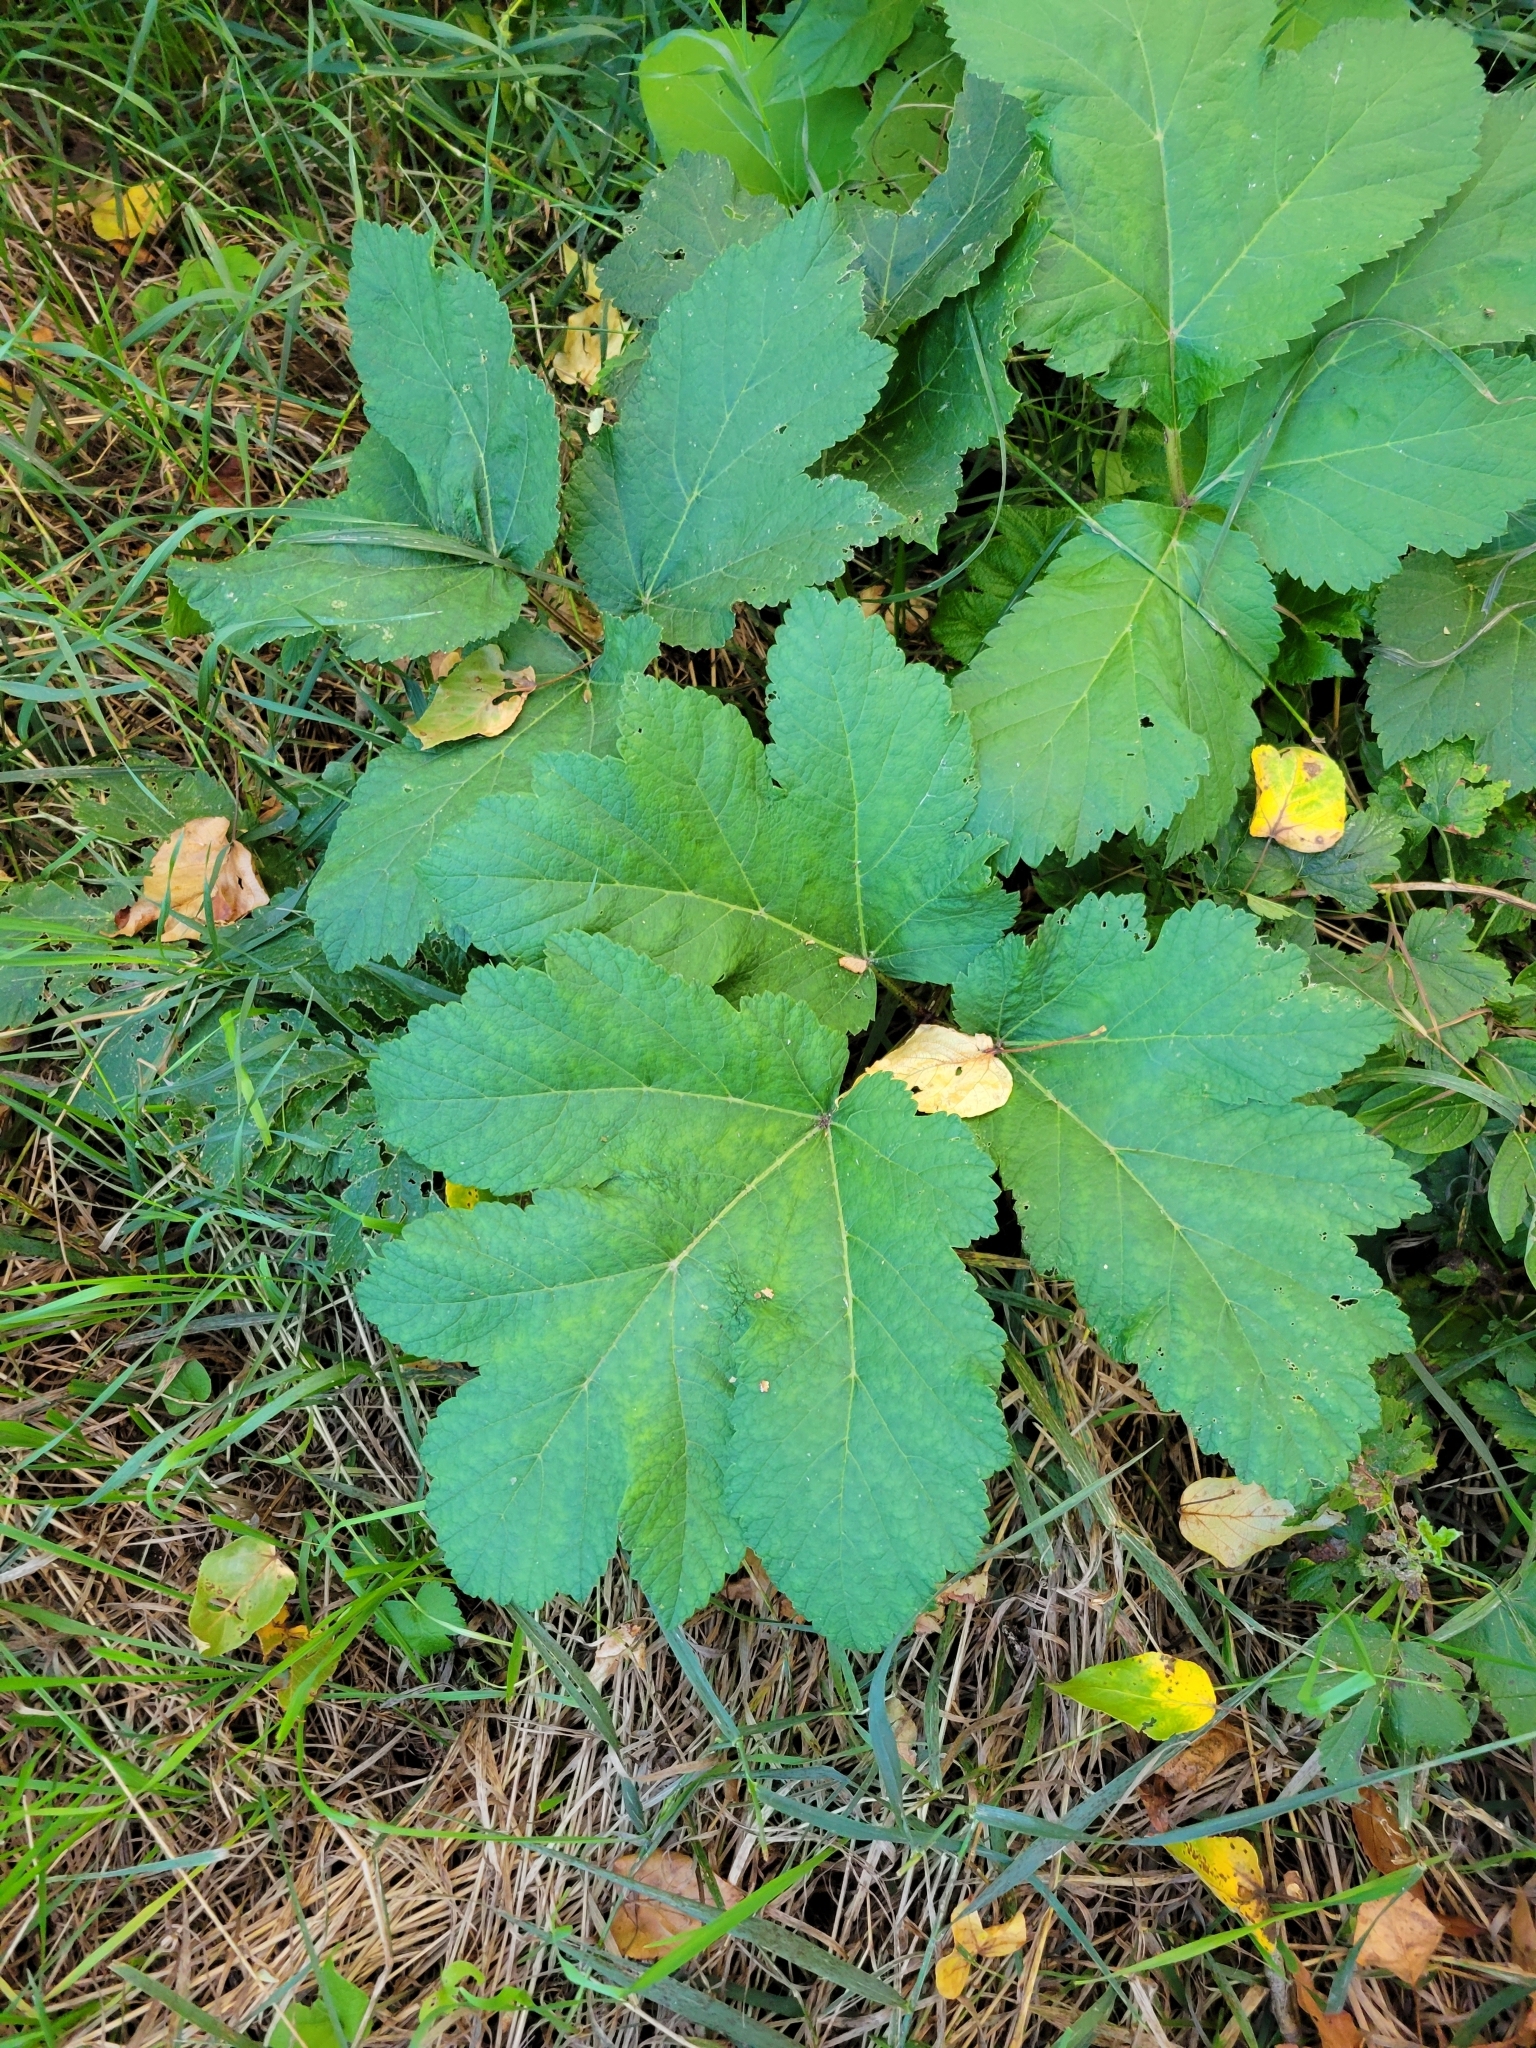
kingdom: Plantae
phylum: Tracheophyta
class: Magnoliopsida
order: Apiales
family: Apiaceae
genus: Heracleum
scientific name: Heracleum maximum
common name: American cow parsnip
